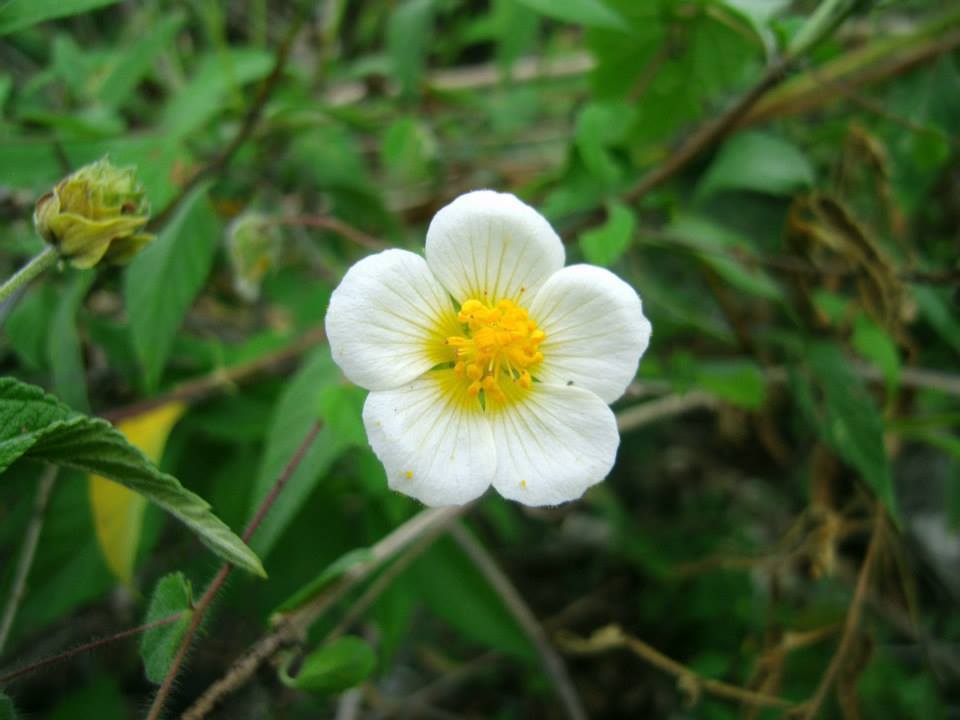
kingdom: Plantae
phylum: Tracheophyta
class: Magnoliopsida
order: Malvales
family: Malvaceae
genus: Herissantia
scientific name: Herissantia crispa
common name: Bladdermallow
